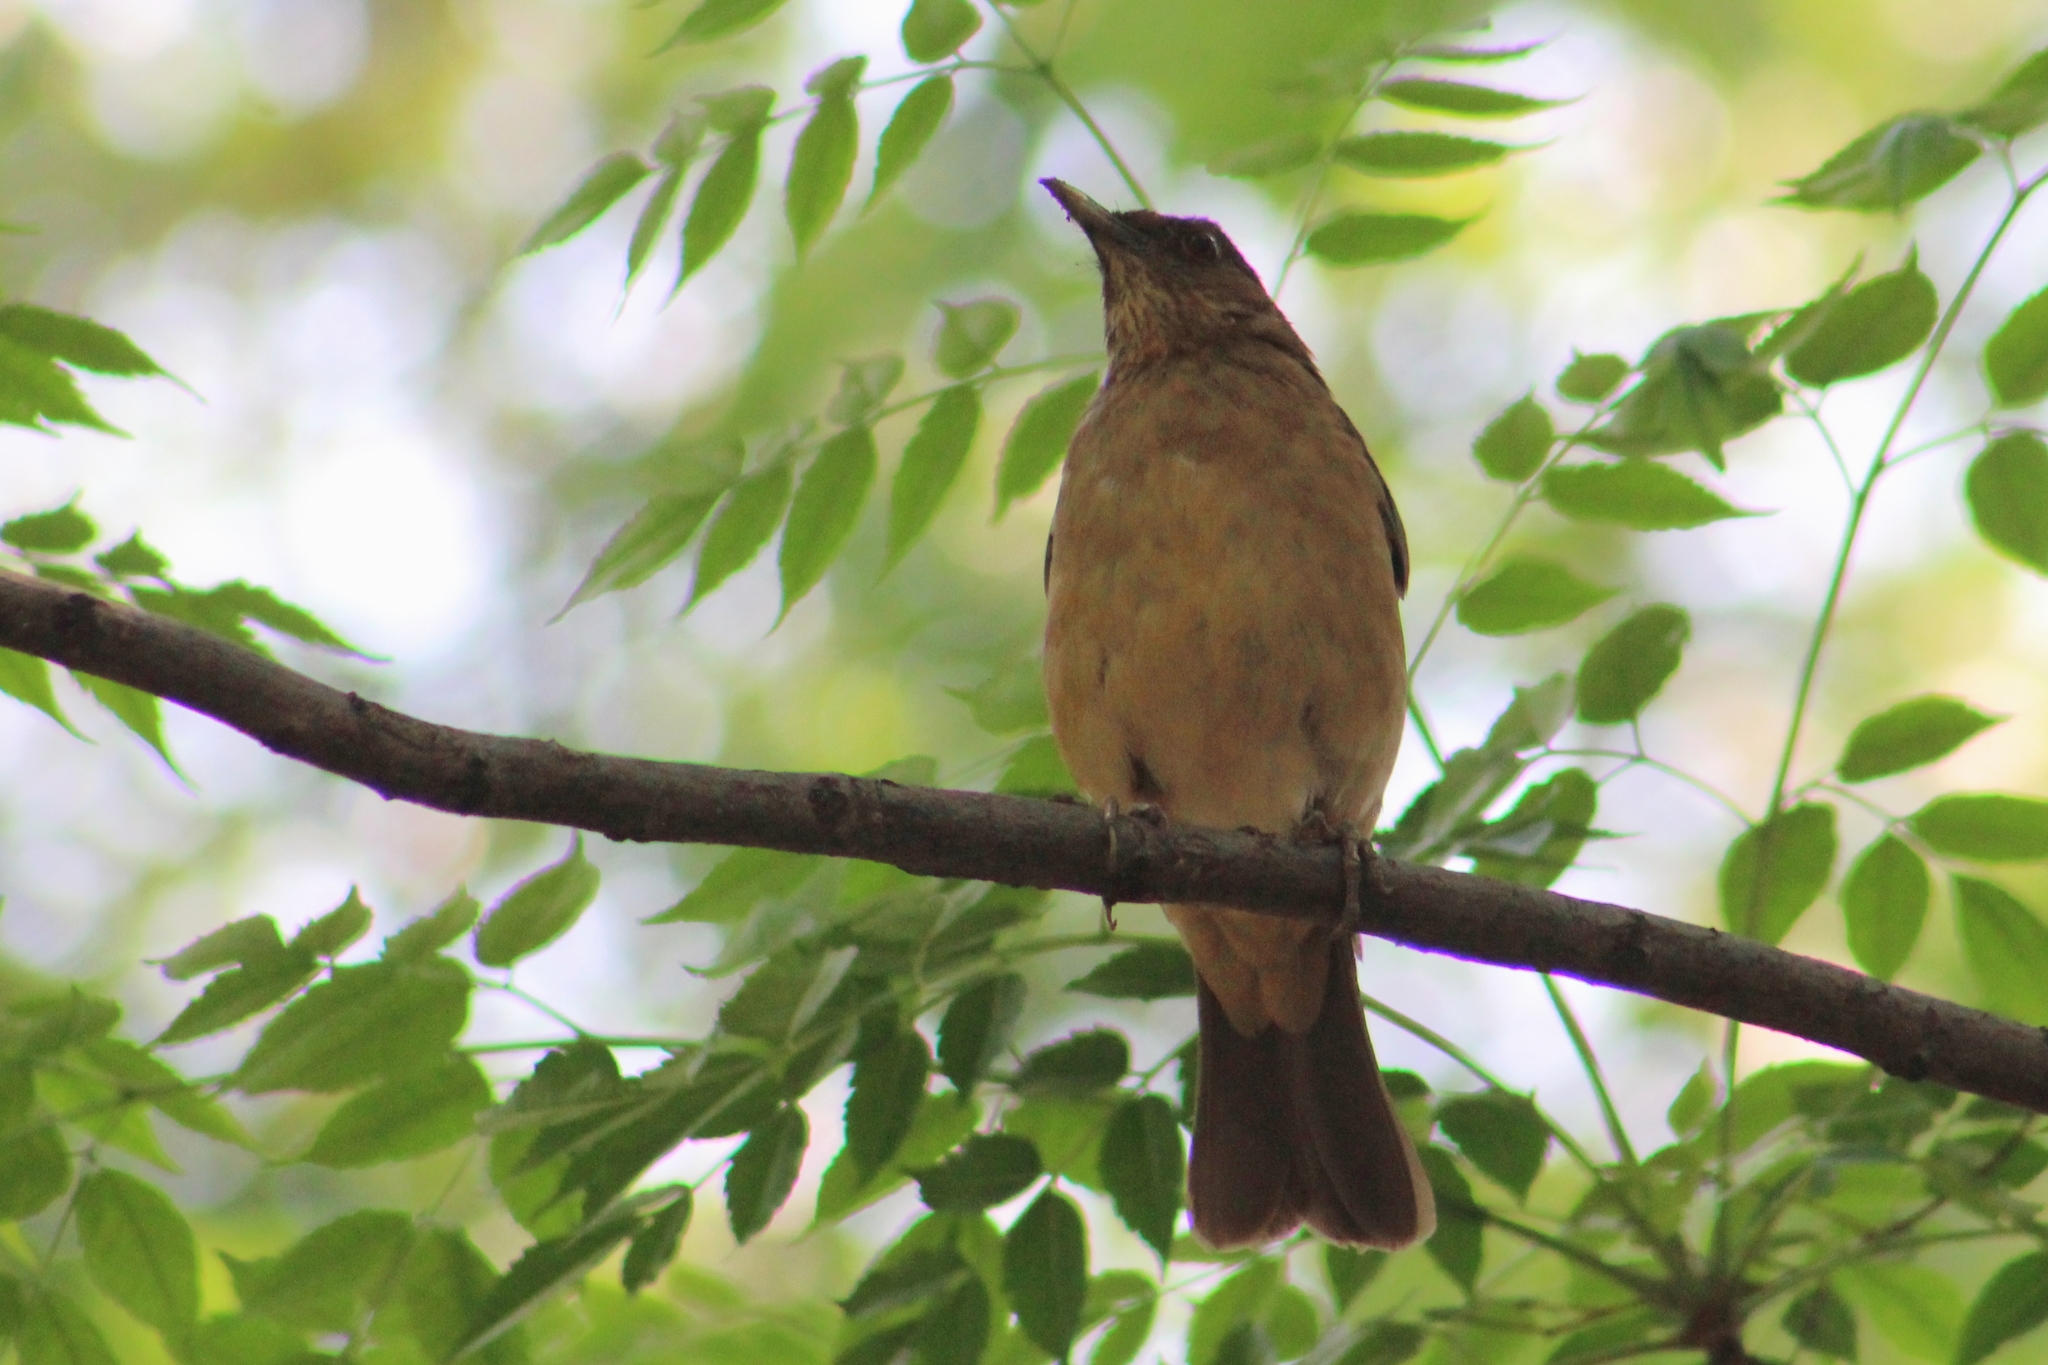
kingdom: Animalia
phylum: Chordata
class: Aves
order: Passeriformes
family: Turdidae
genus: Turdus
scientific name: Turdus grayi
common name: Clay-colored thrush
